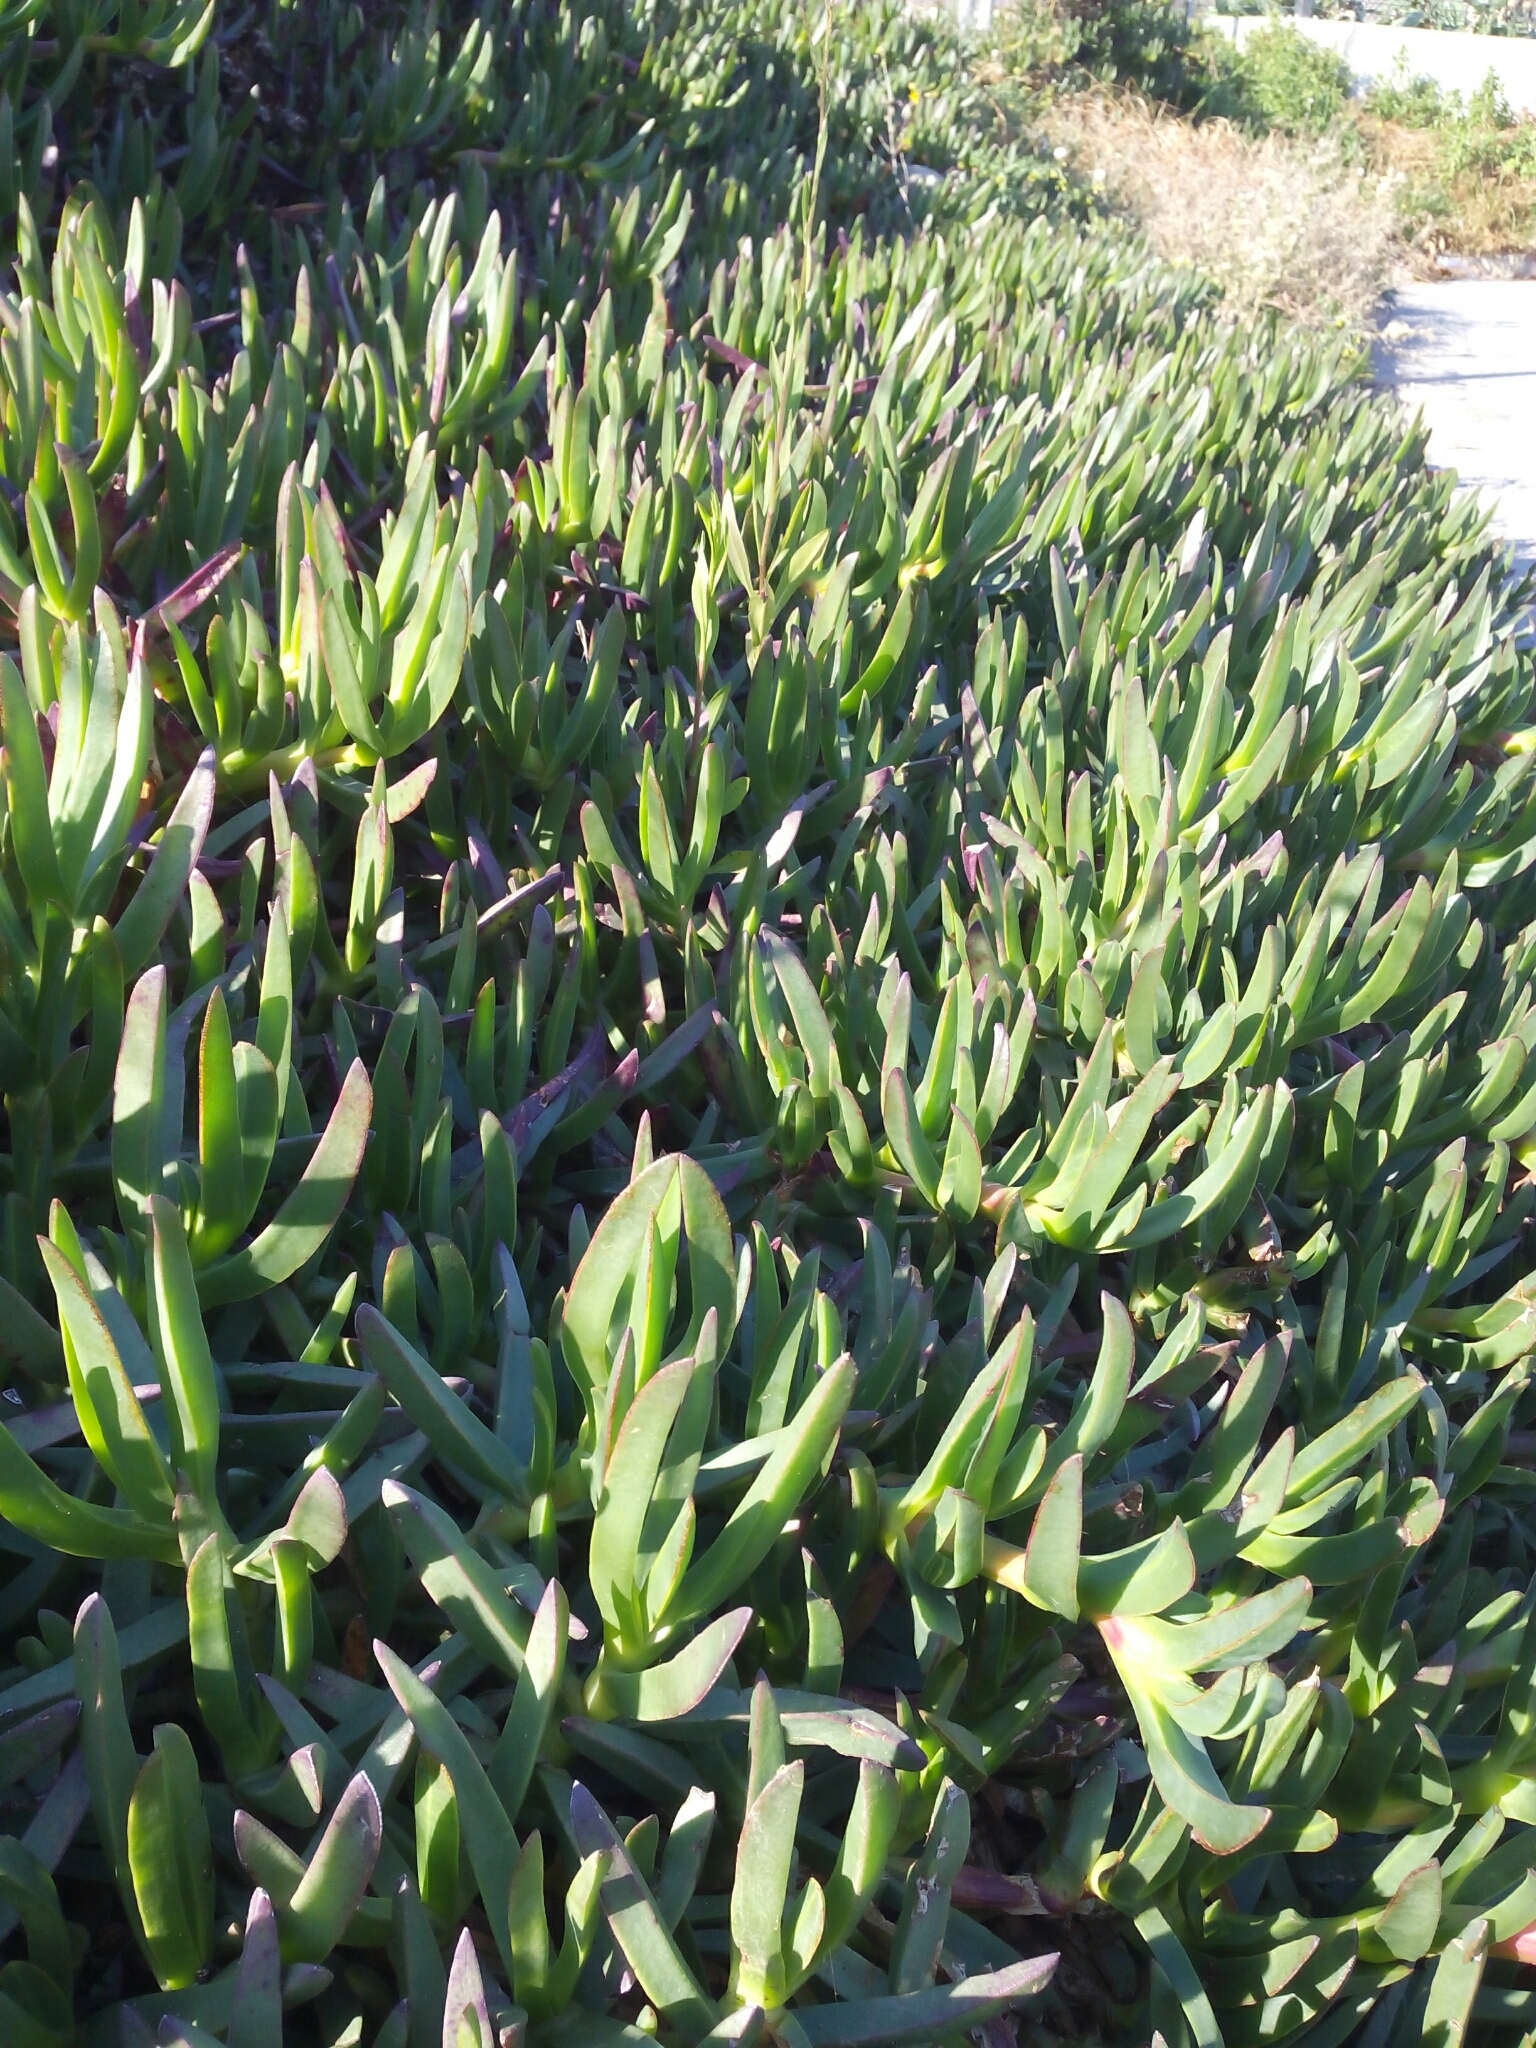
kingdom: Plantae
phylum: Tracheophyta
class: Magnoliopsida
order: Caryophyllales
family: Aizoaceae
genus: Carpobrotus
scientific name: Carpobrotus acinaciformis
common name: Sally-my-handsome
